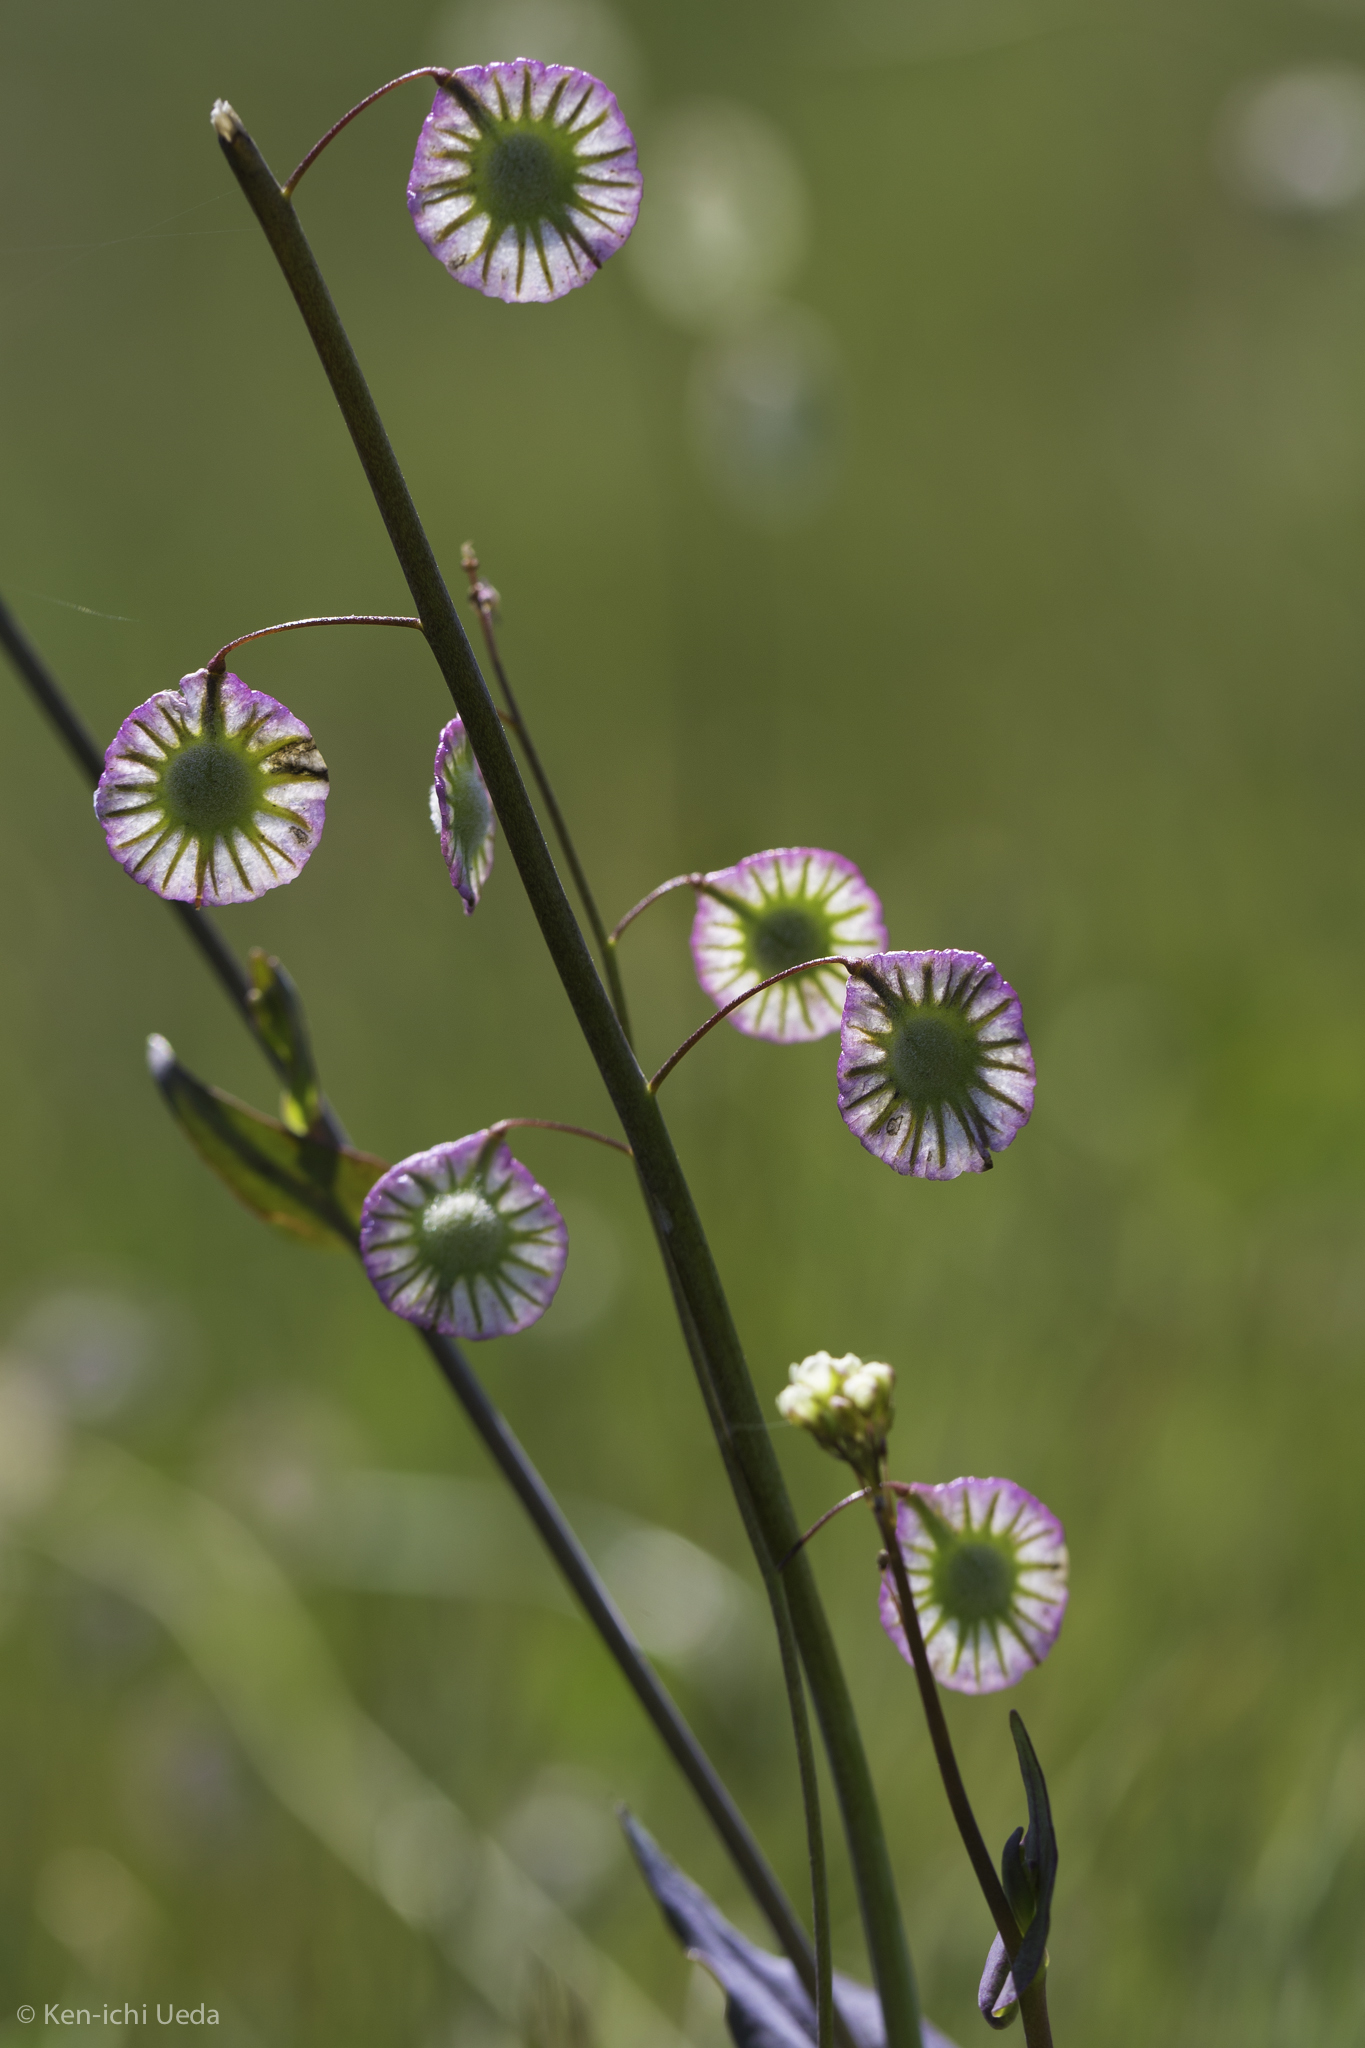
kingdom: Plantae
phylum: Tracheophyta
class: Magnoliopsida
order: Brassicales
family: Brassicaceae
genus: Thysanocarpus
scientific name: Thysanocarpus radians
